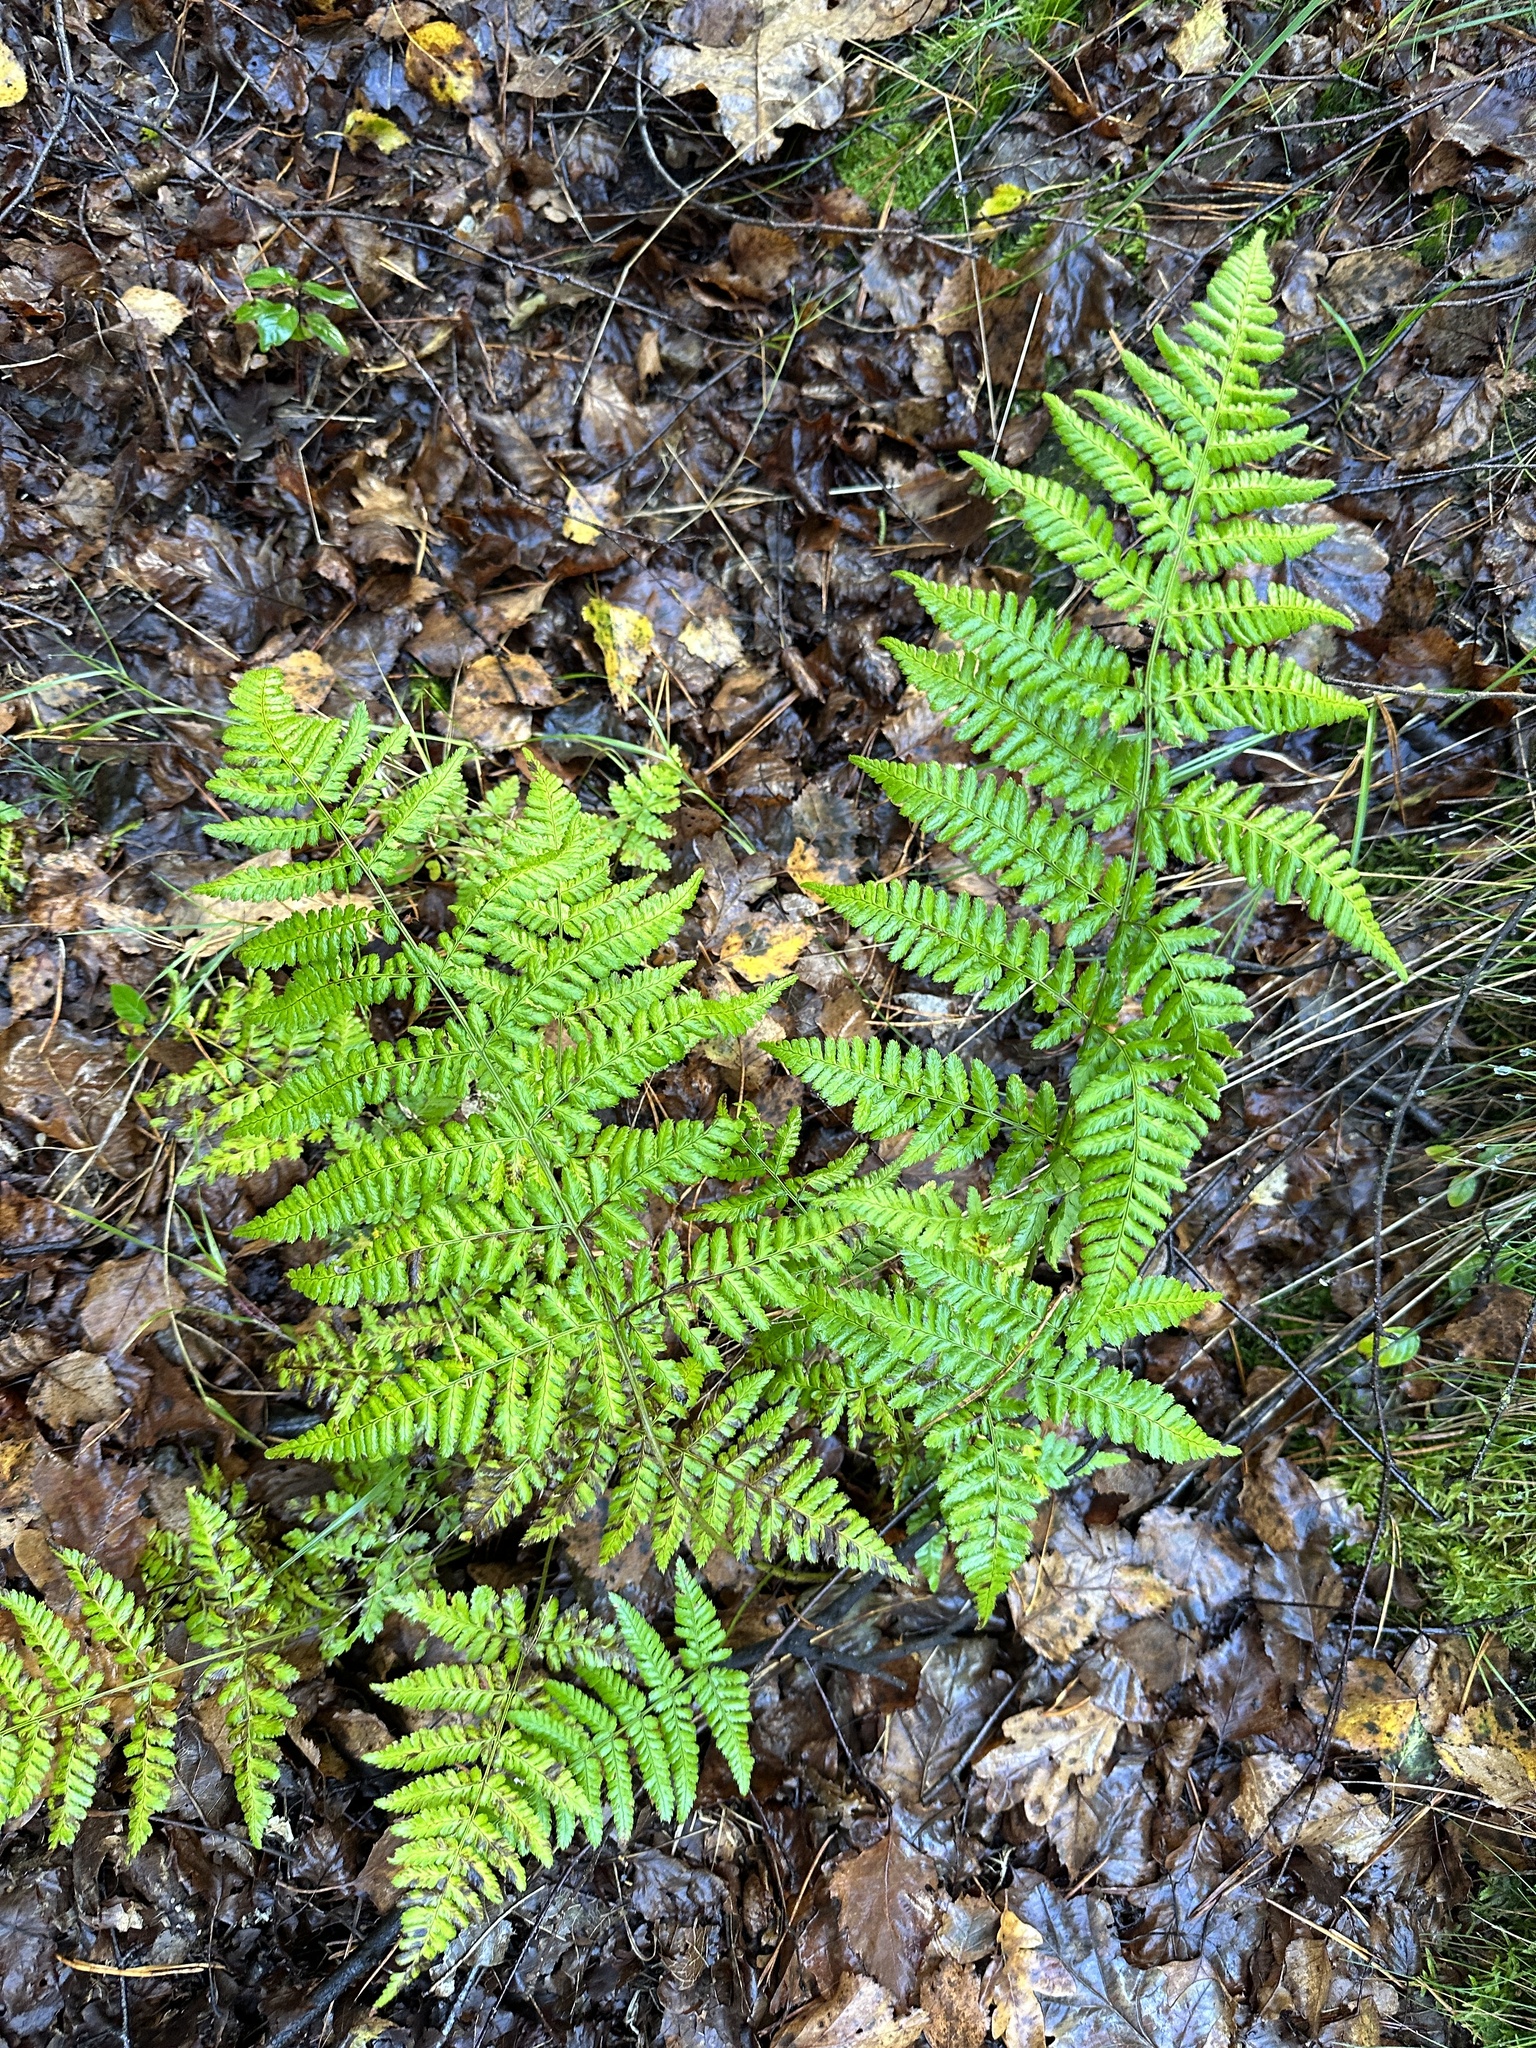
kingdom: Plantae
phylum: Tracheophyta
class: Polypodiopsida
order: Polypodiales
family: Dryopteridaceae
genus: Dryopteris
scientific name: Dryopteris dilatata
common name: Broad buckler-fern
